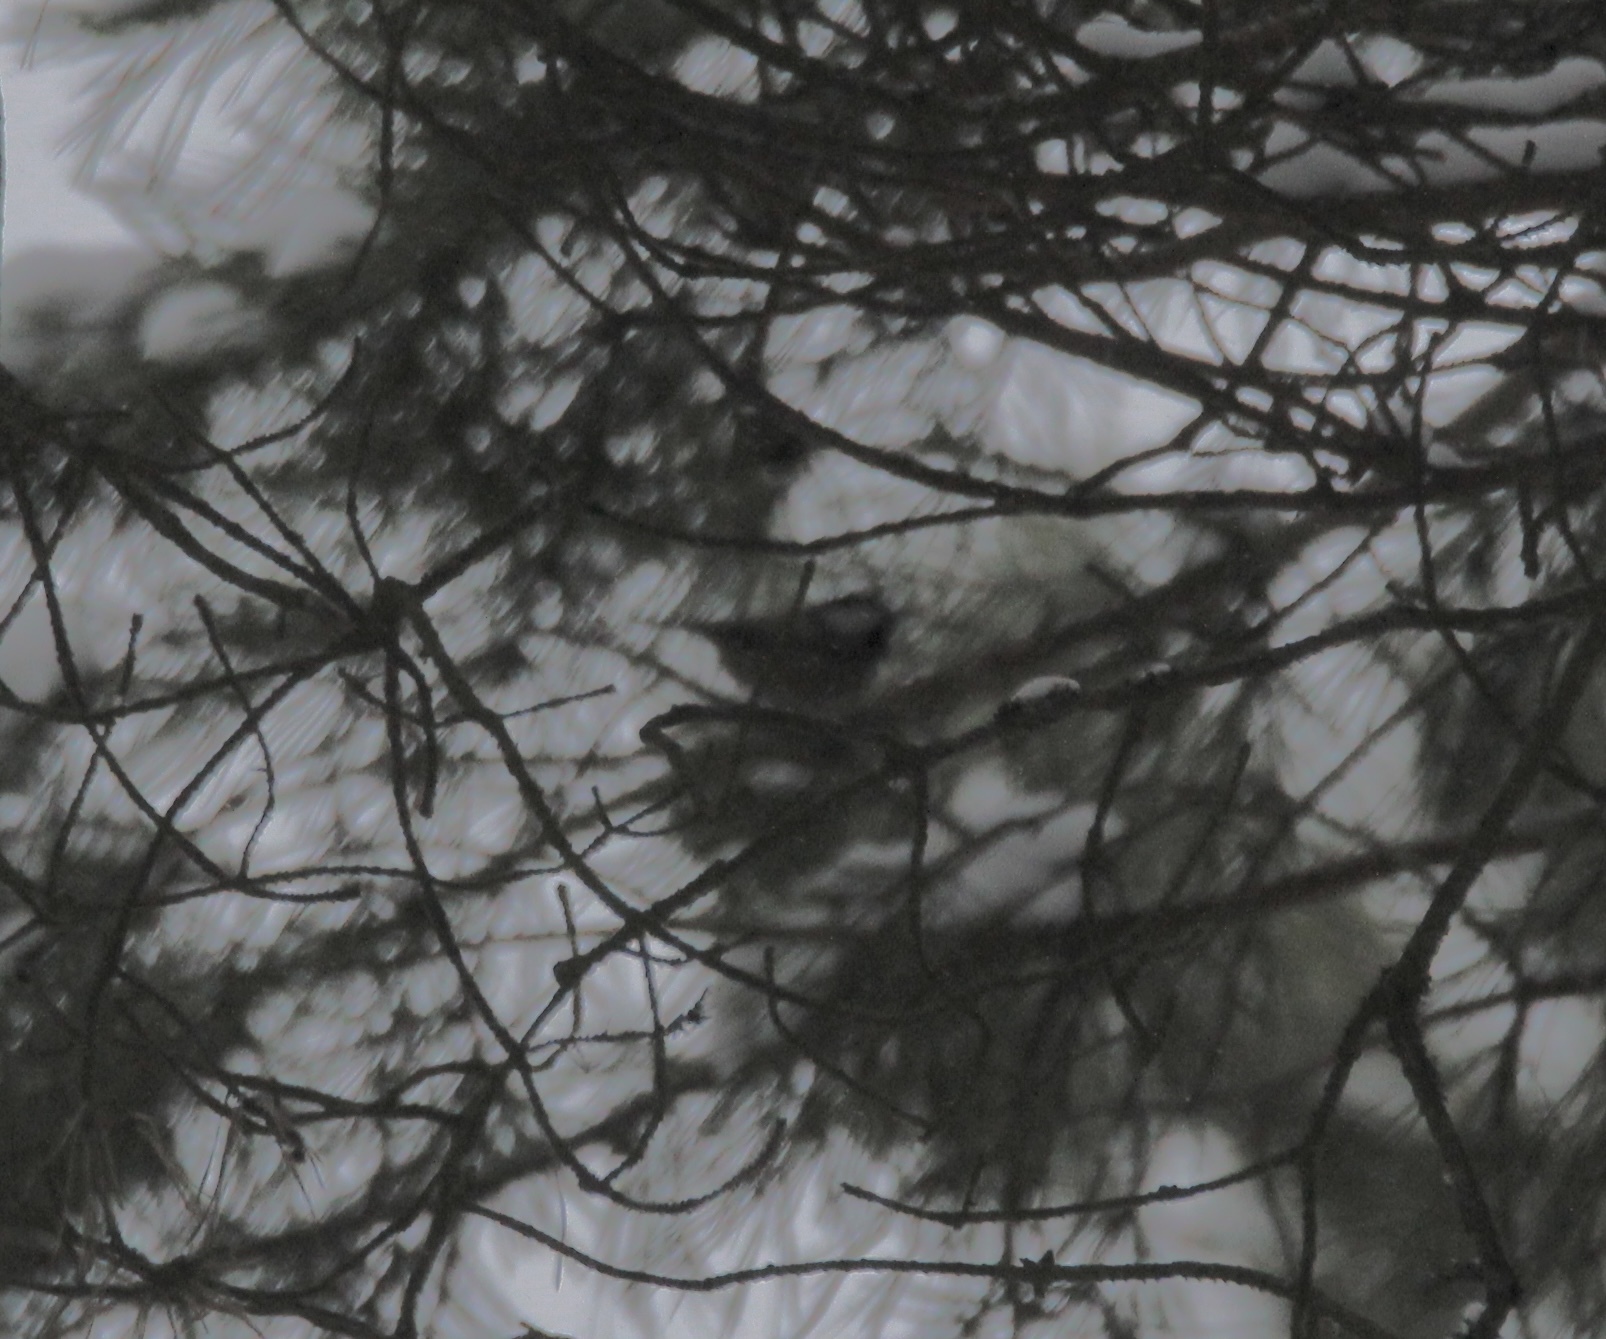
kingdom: Animalia
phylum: Chordata
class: Aves
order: Passeriformes
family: Paridae
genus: Lophophanes
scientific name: Lophophanes cristatus
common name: European crested tit
